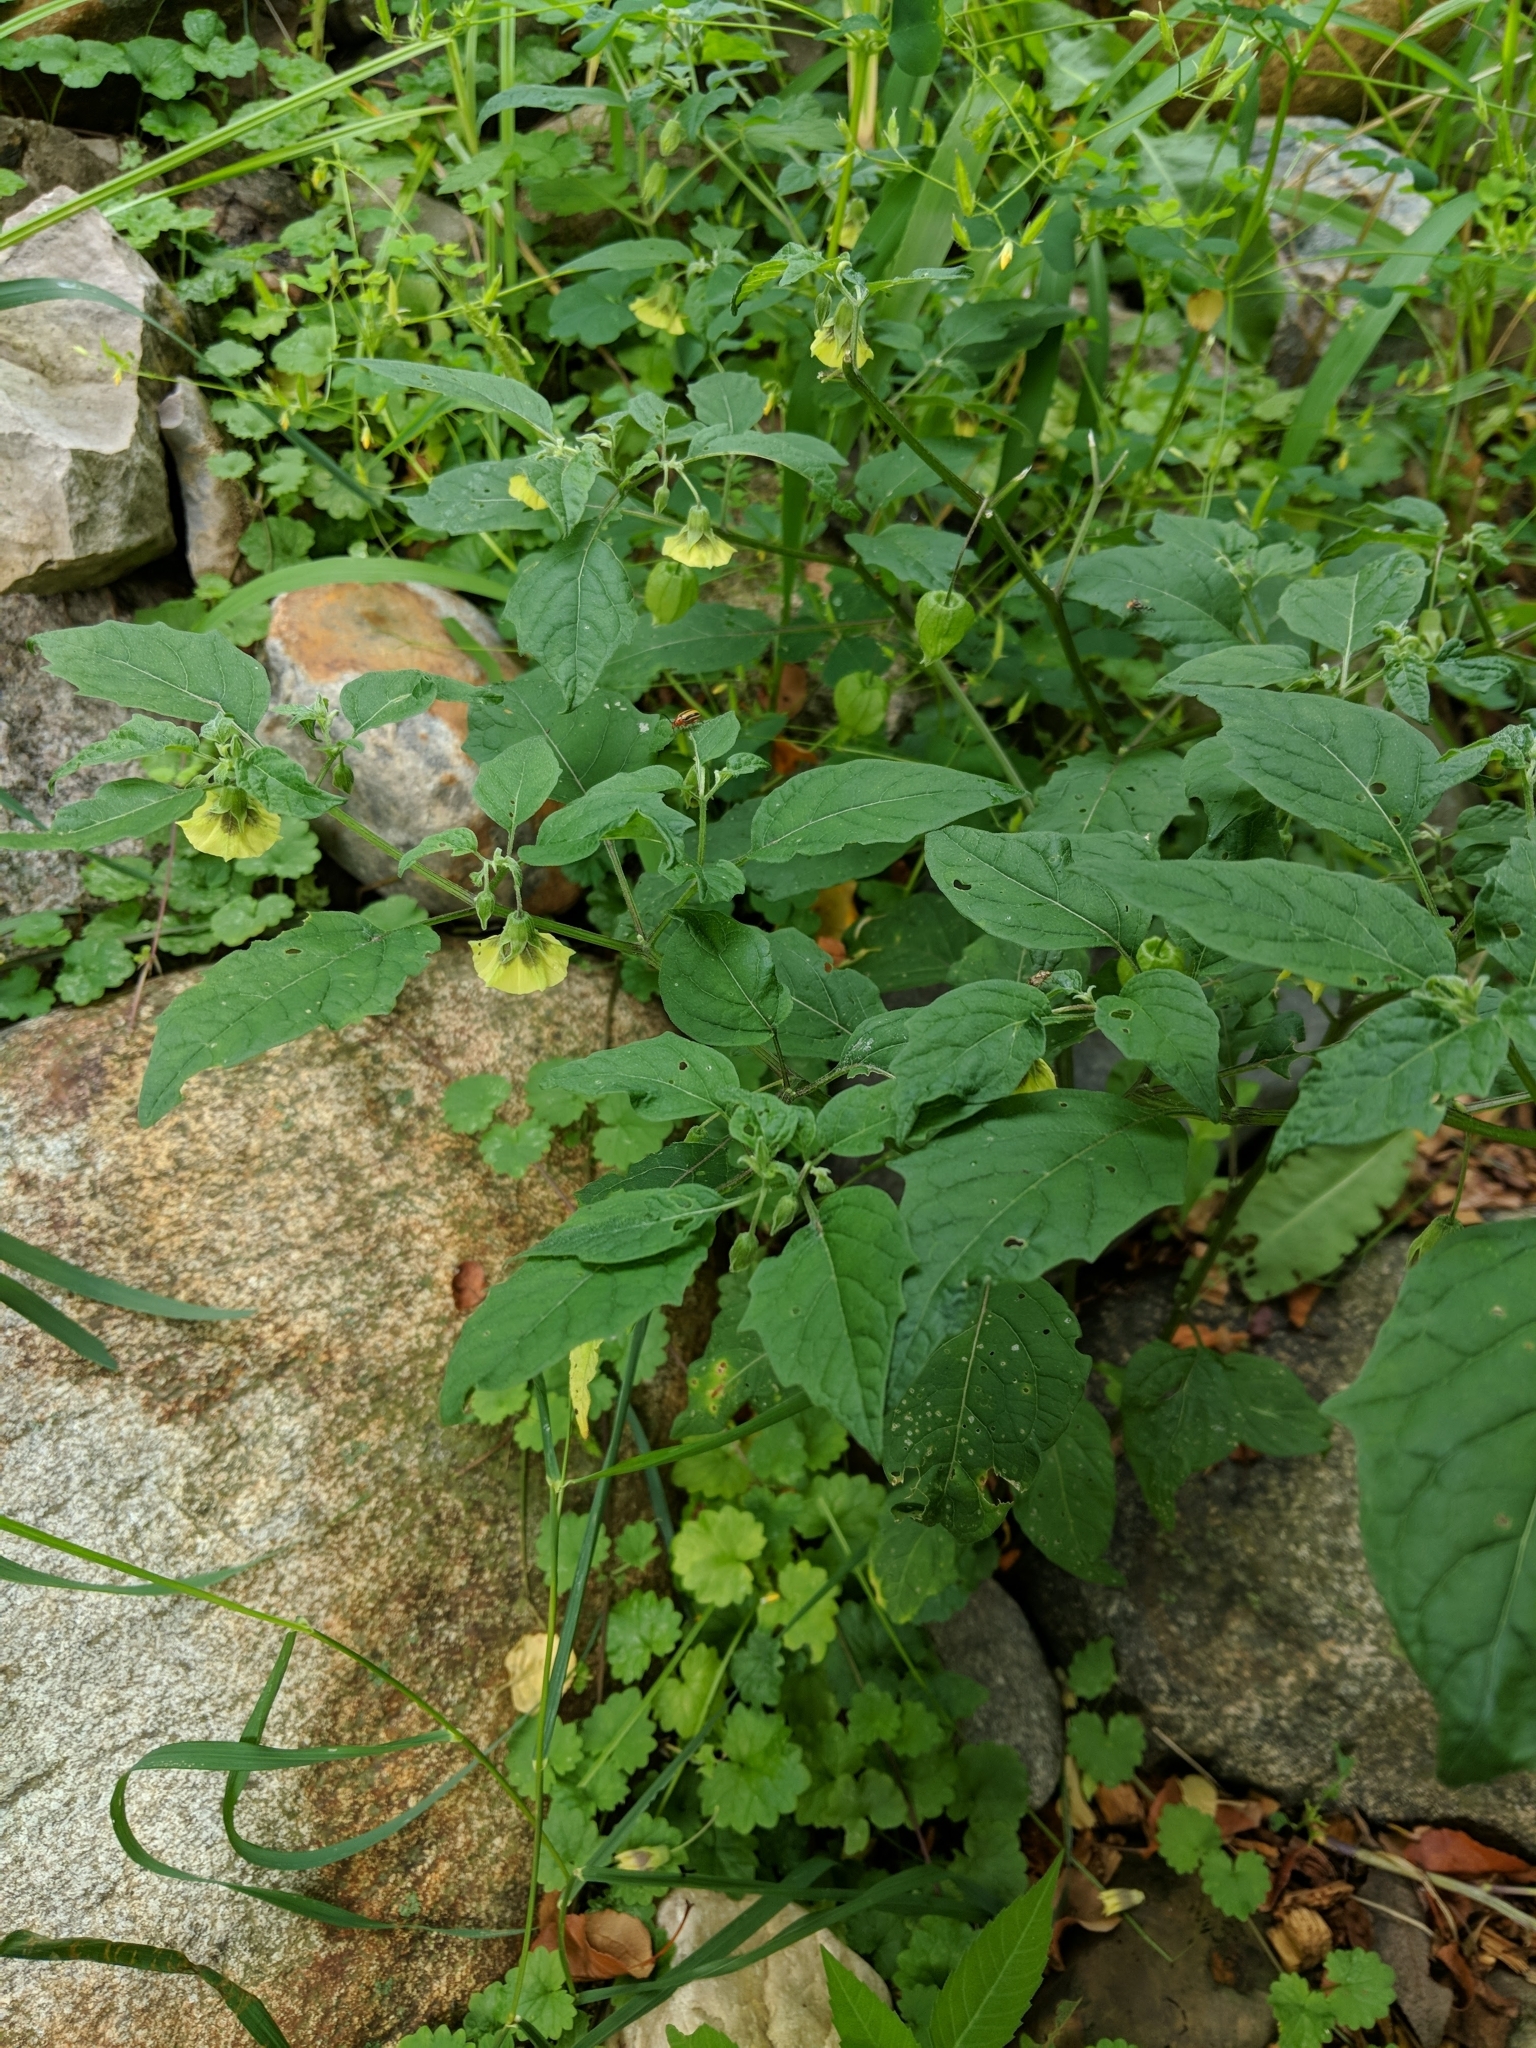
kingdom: Plantae
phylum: Tracheophyta
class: Magnoliopsida
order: Solanales
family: Solanaceae
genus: Physalis
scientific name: Physalis longifolia
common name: Common ground-cherry
